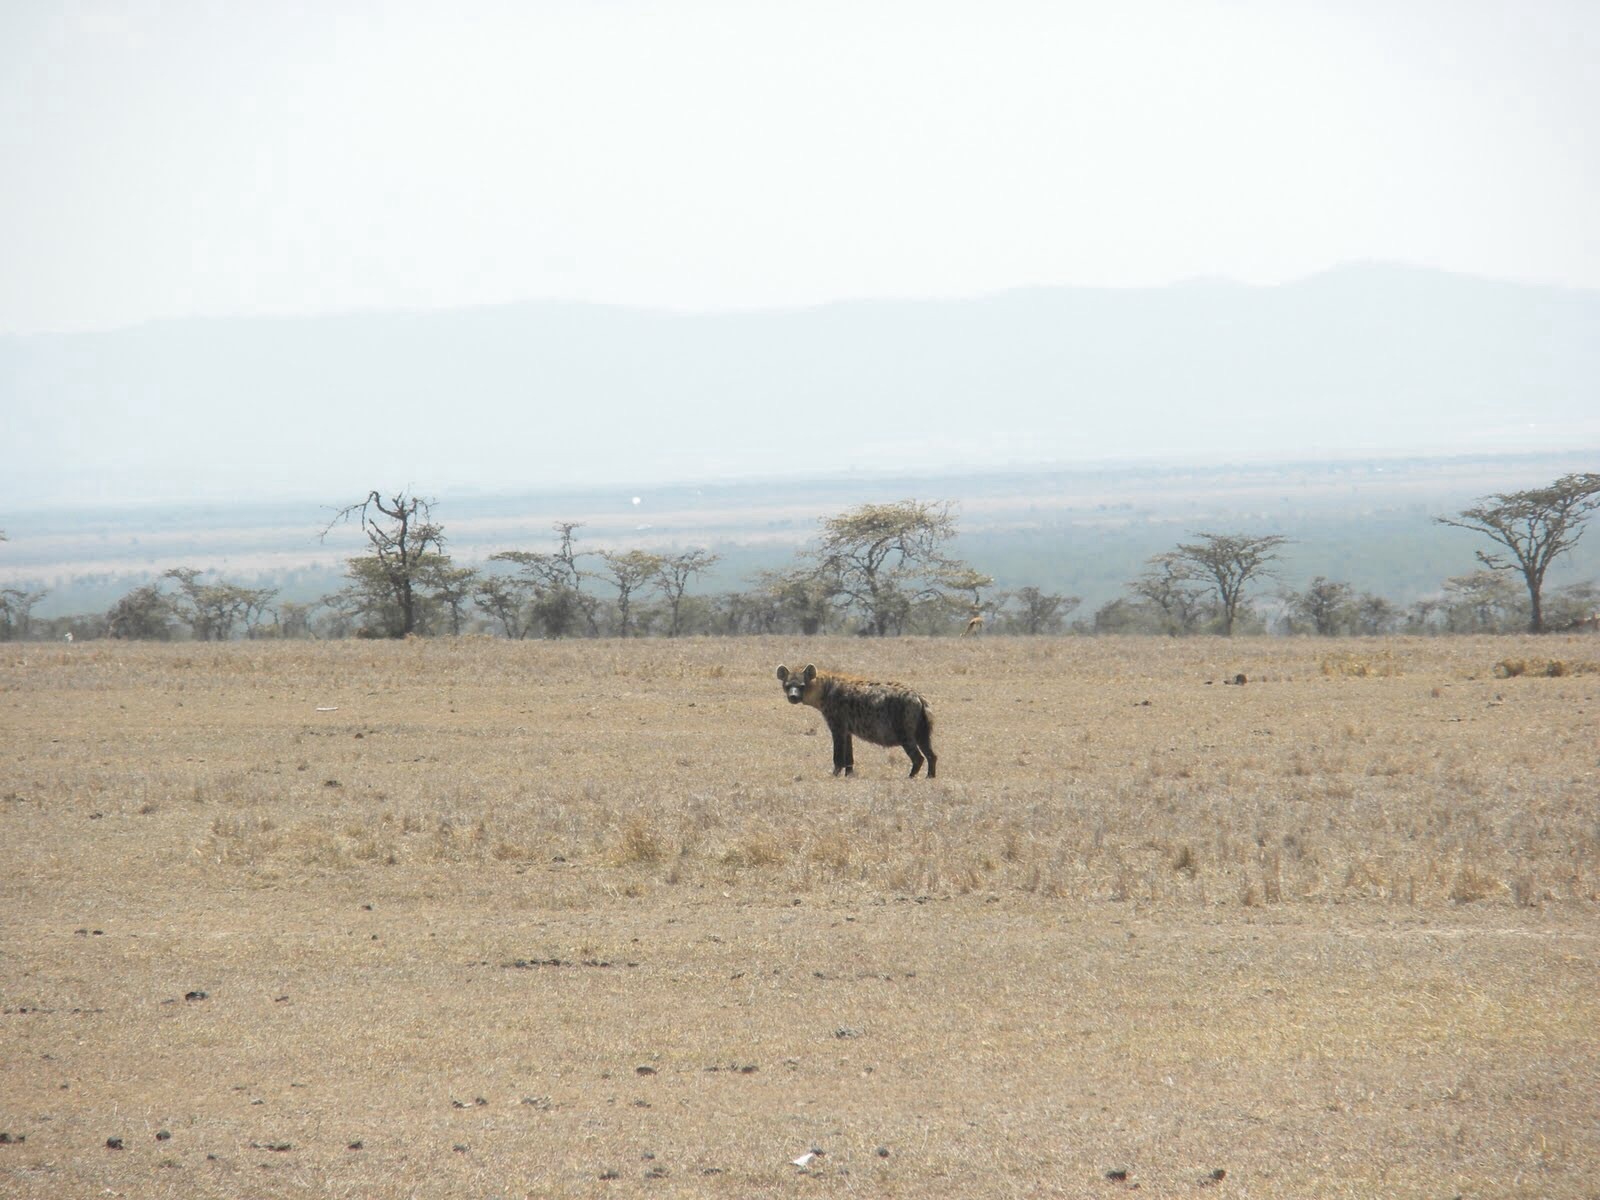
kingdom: Animalia
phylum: Chordata
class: Mammalia
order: Carnivora
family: Hyaenidae
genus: Crocuta
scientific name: Crocuta crocuta
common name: Spotted hyaena
